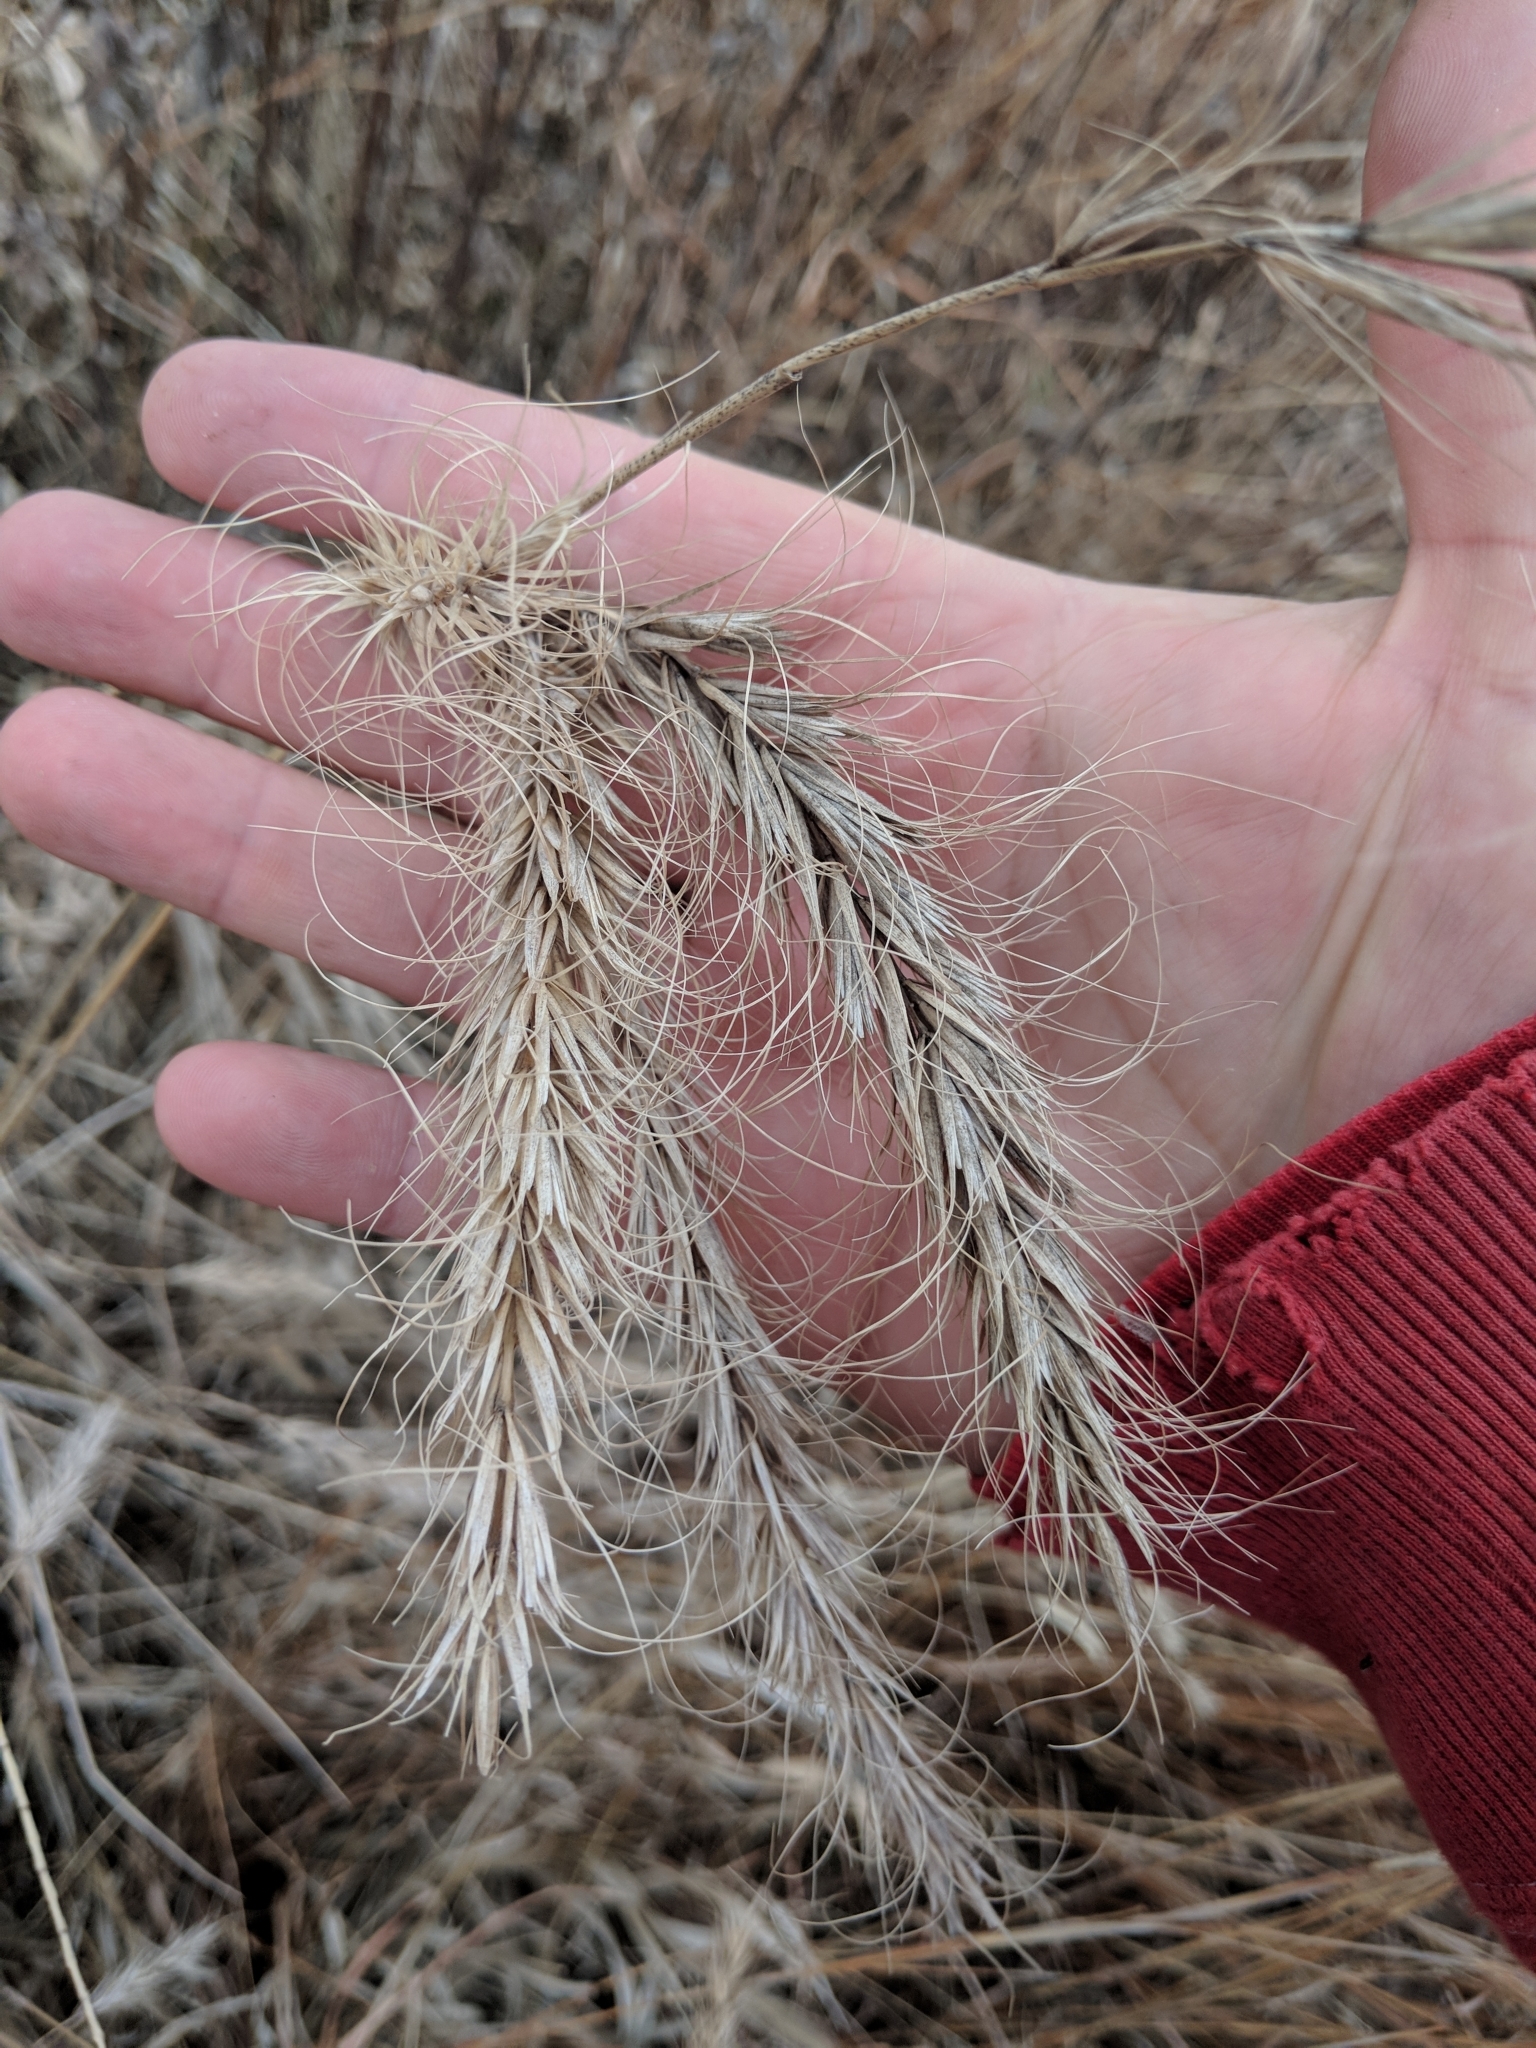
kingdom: Plantae
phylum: Tracheophyta
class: Liliopsida
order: Poales
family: Poaceae
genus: Elymus
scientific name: Elymus canadensis
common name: Canada wild rye
